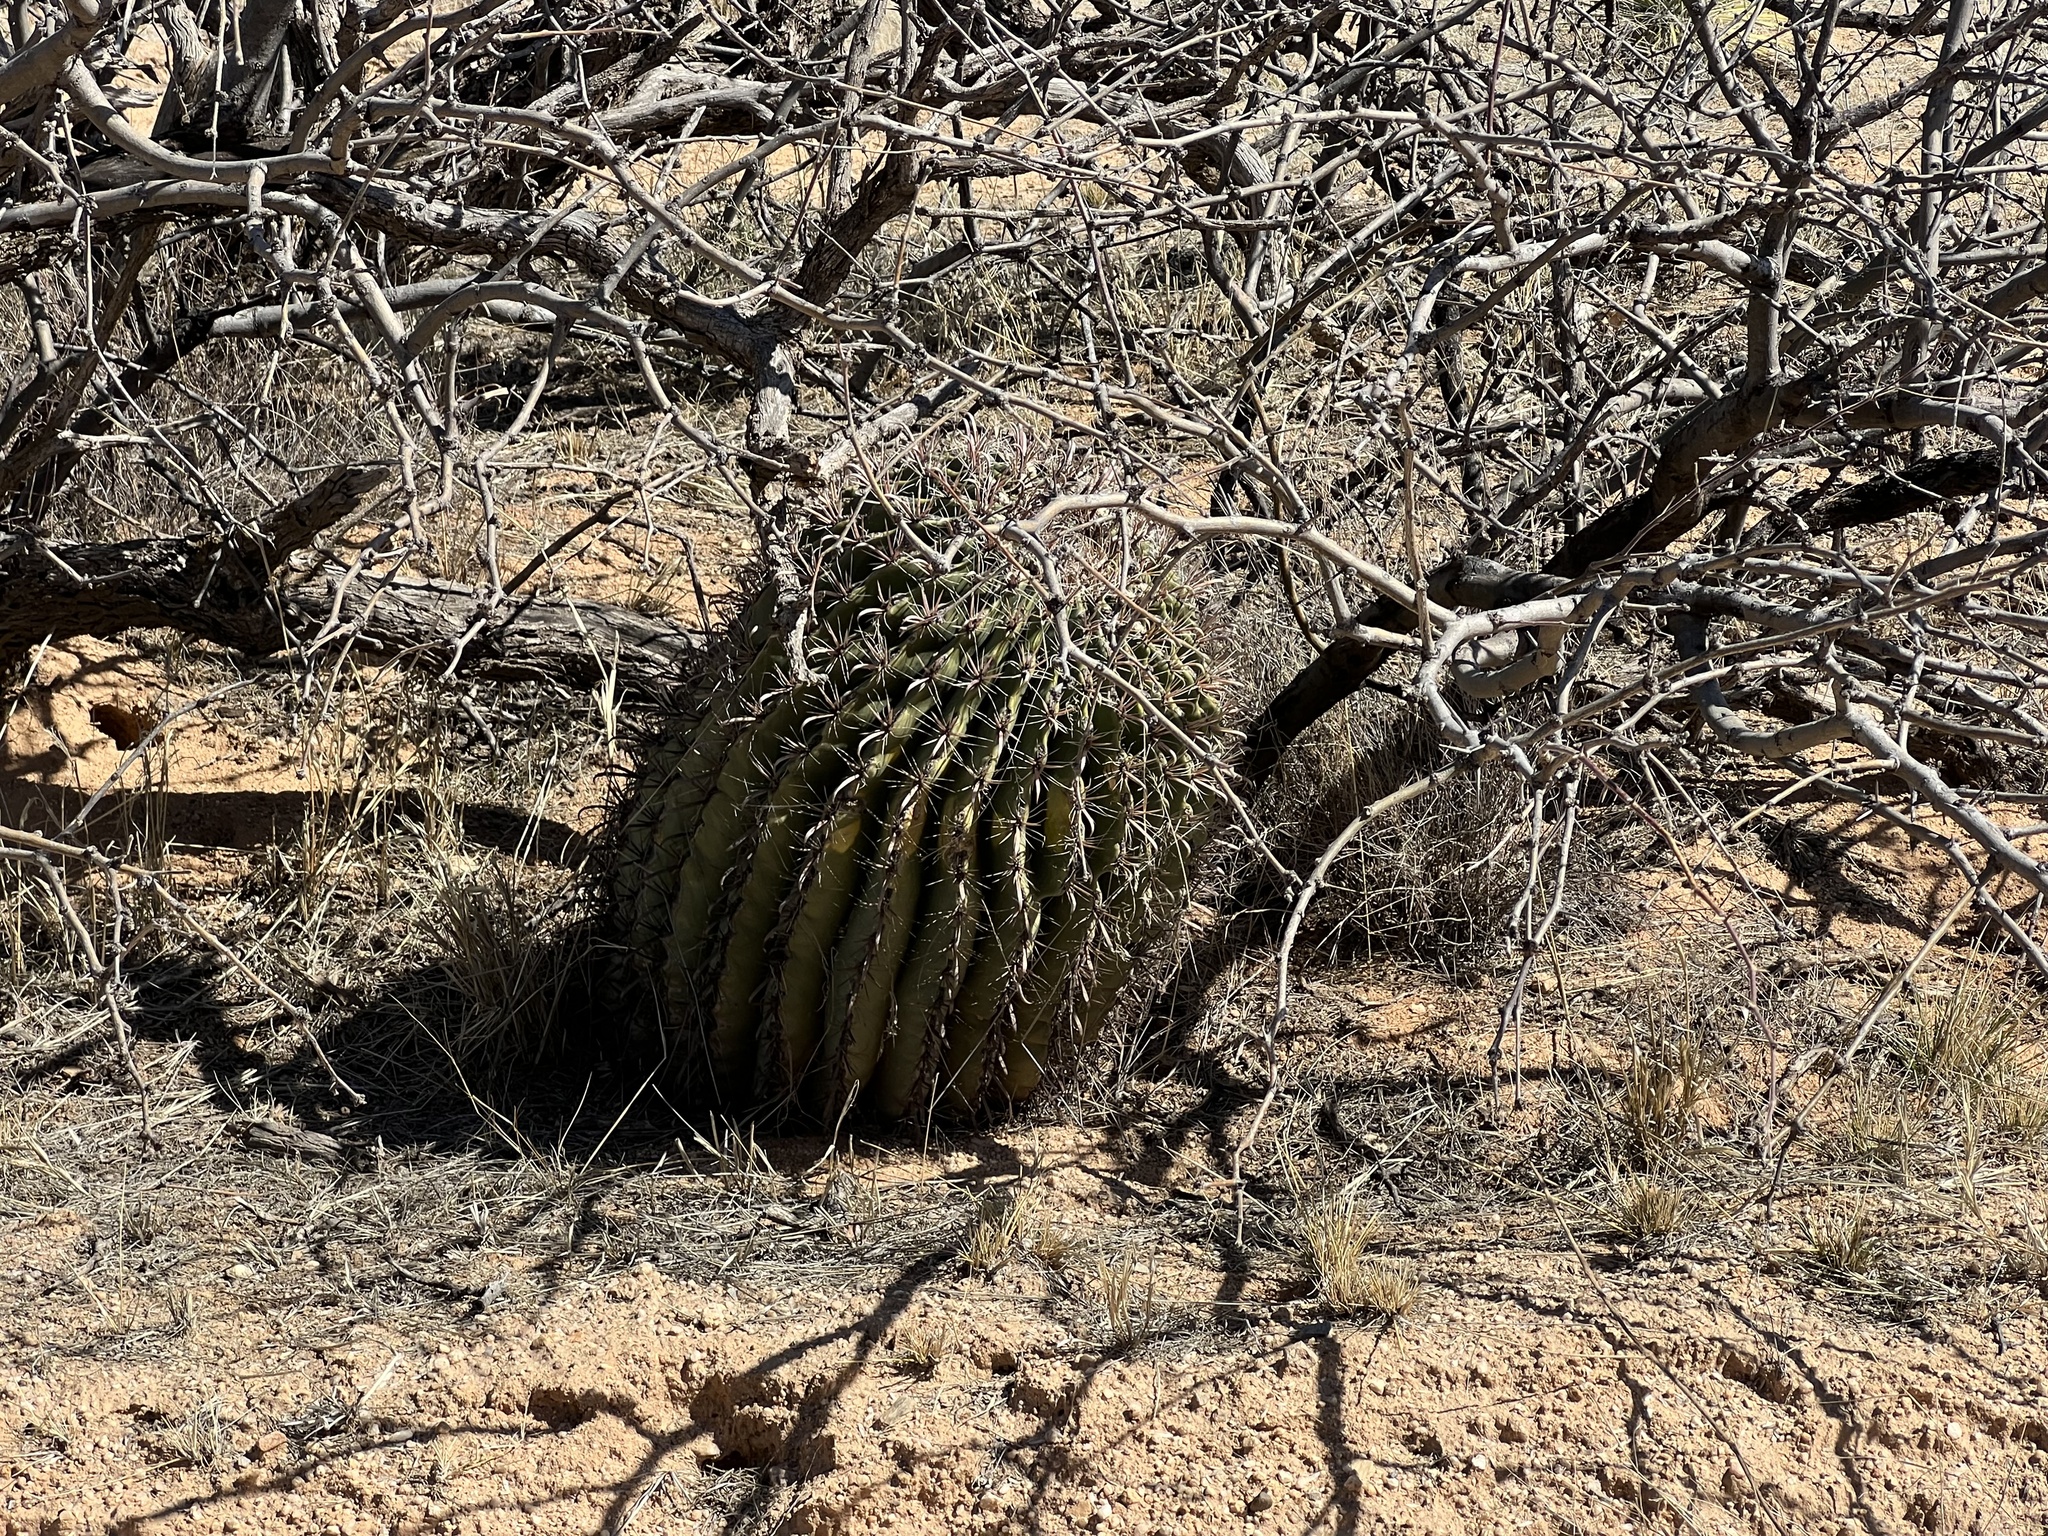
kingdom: Plantae
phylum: Tracheophyta
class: Magnoliopsida
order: Caryophyllales
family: Cactaceae
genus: Ferocactus
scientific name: Ferocactus wislizeni
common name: Candy barrel cactus
